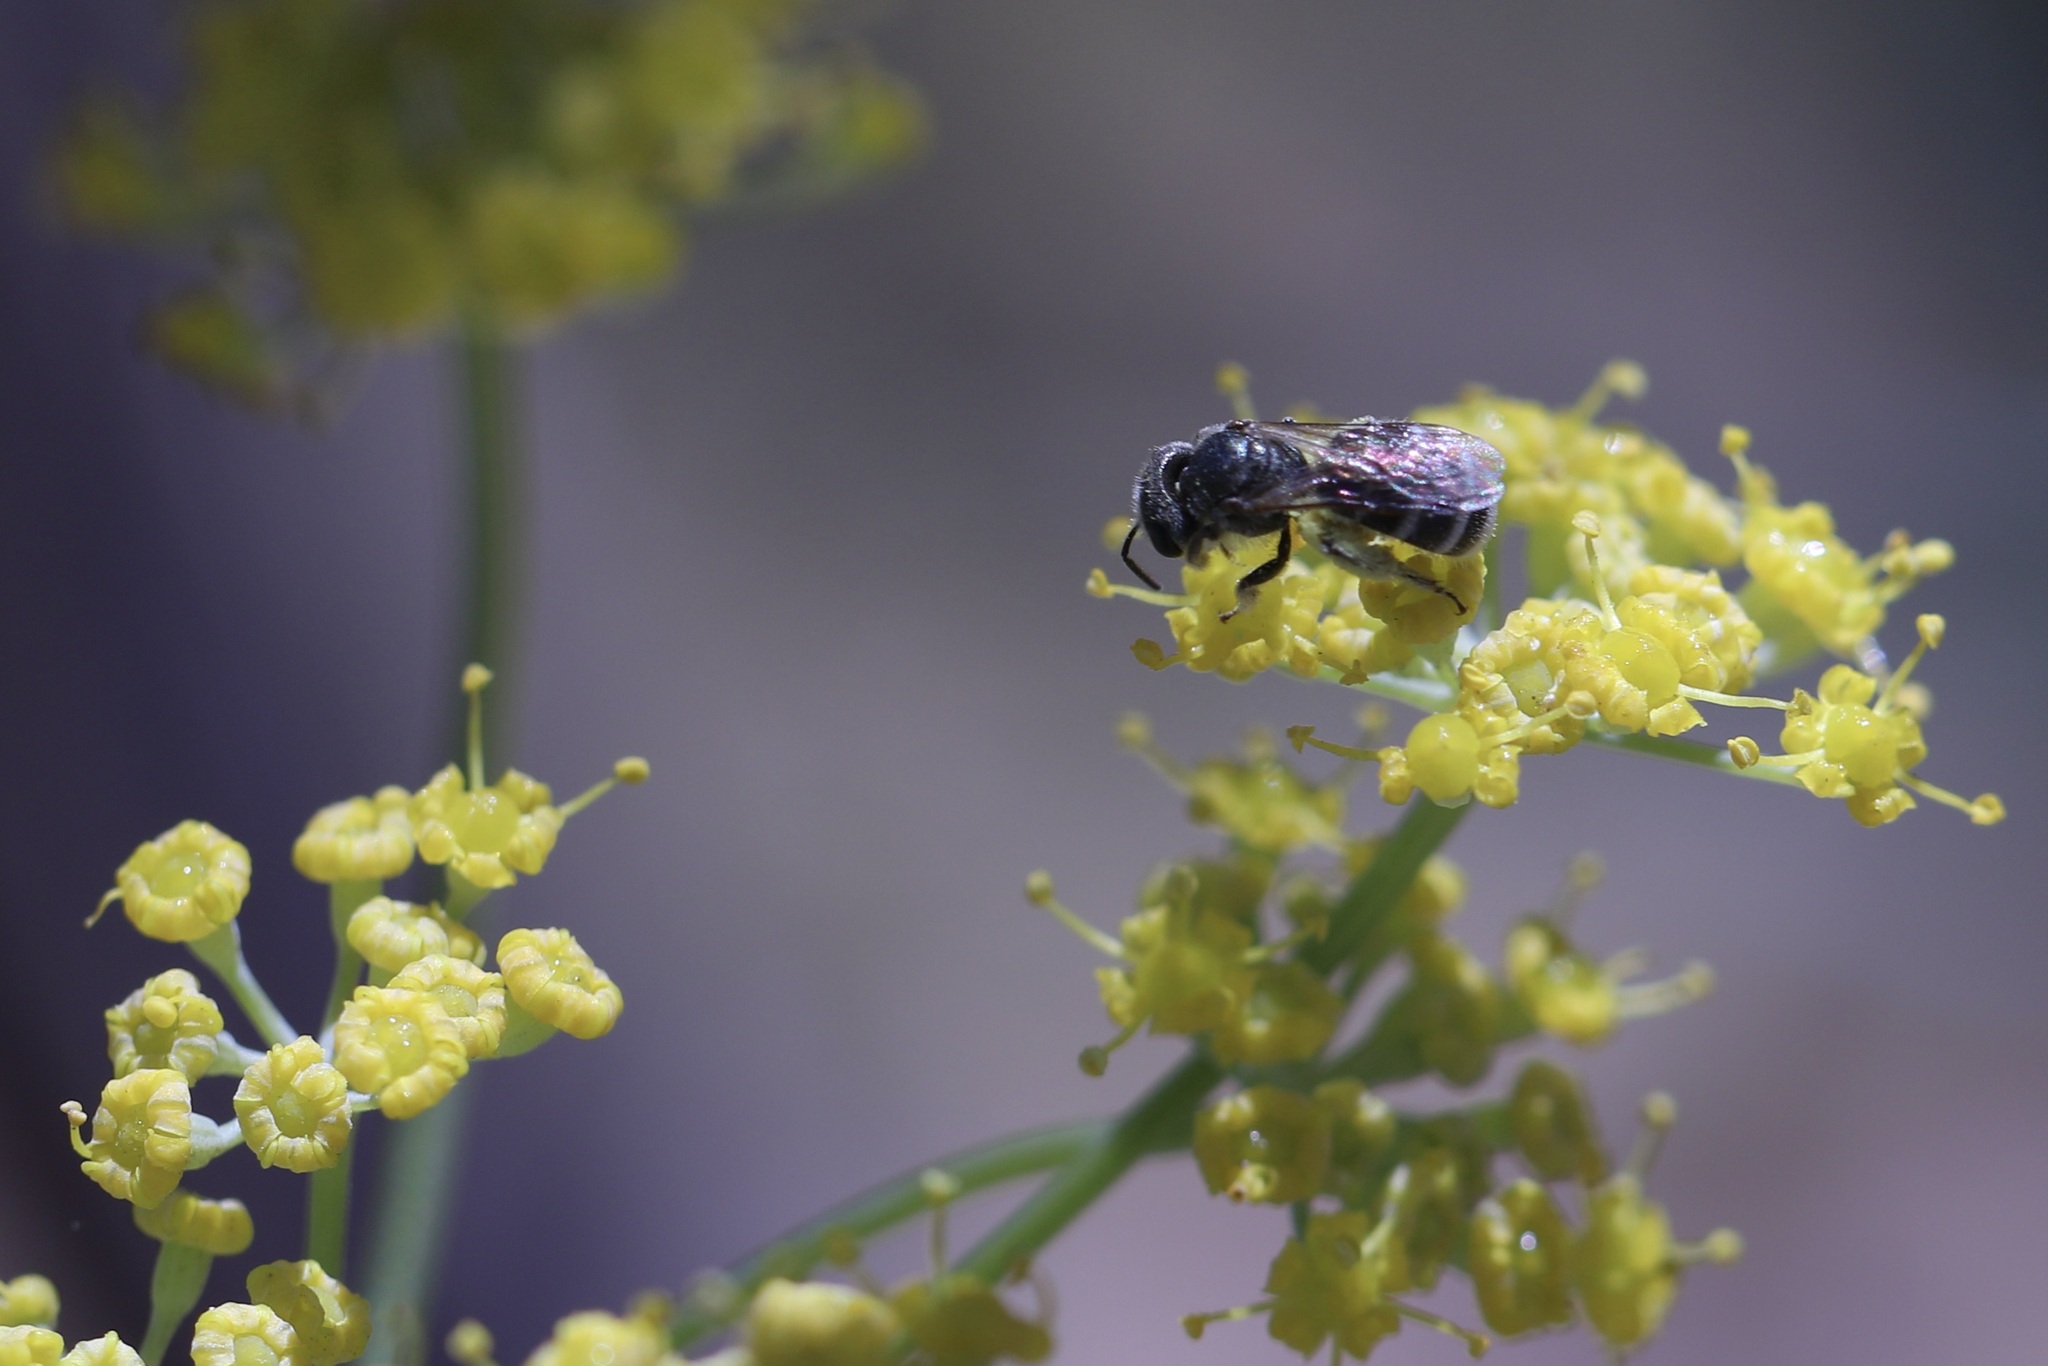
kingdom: Animalia
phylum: Arthropoda
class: Insecta
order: Hymenoptera
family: Halictidae
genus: Halictus
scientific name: Halictus tripartitus
